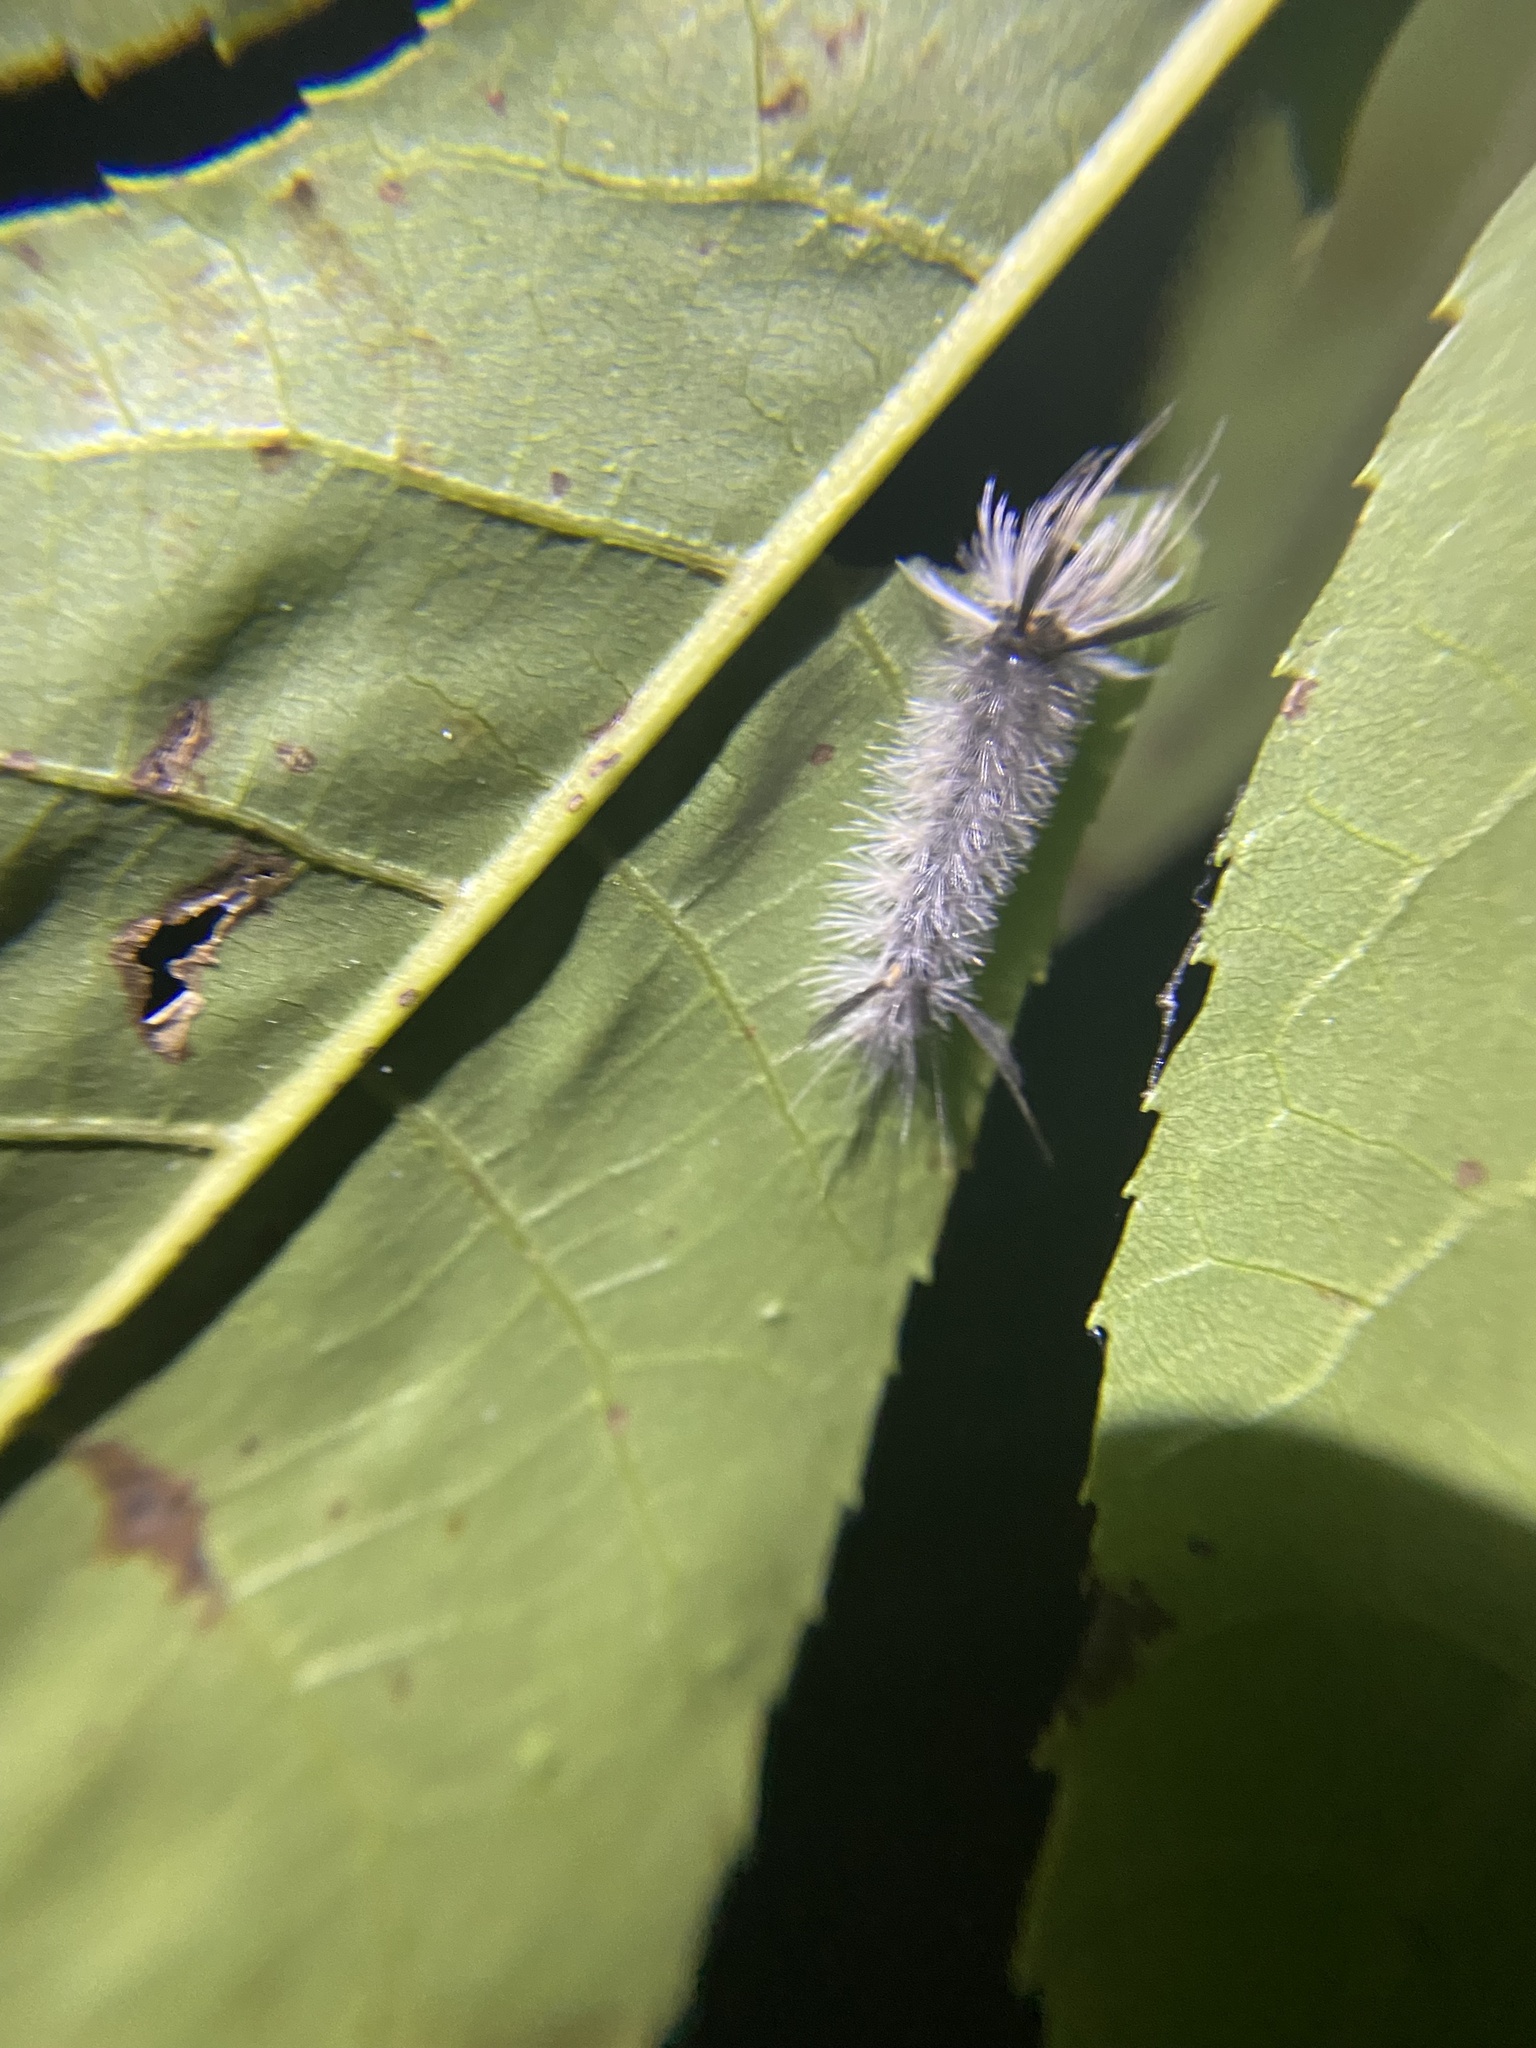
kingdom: Animalia
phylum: Arthropoda
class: Insecta
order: Lepidoptera
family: Erebidae
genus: Halysidota
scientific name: Halysidota tessellaris
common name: Banded tussock moth
